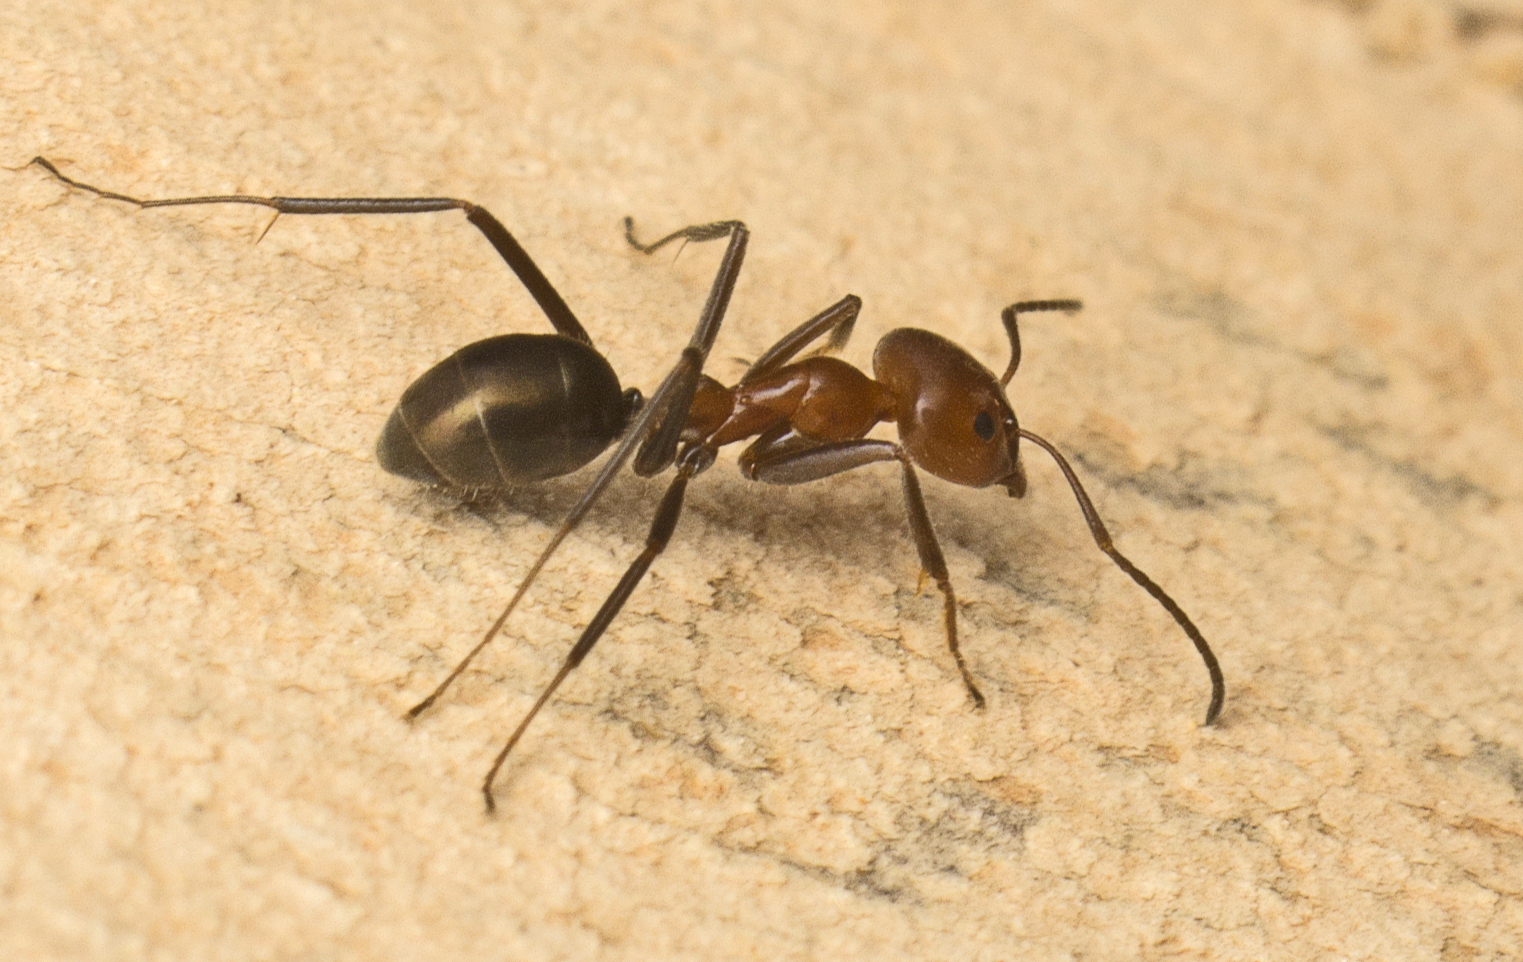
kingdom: Animalia
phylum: Arthropoda
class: Insecta
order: Hymenoptera
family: Formicidae
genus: Iridomyrmex
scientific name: Iridomyrmex purpureus
